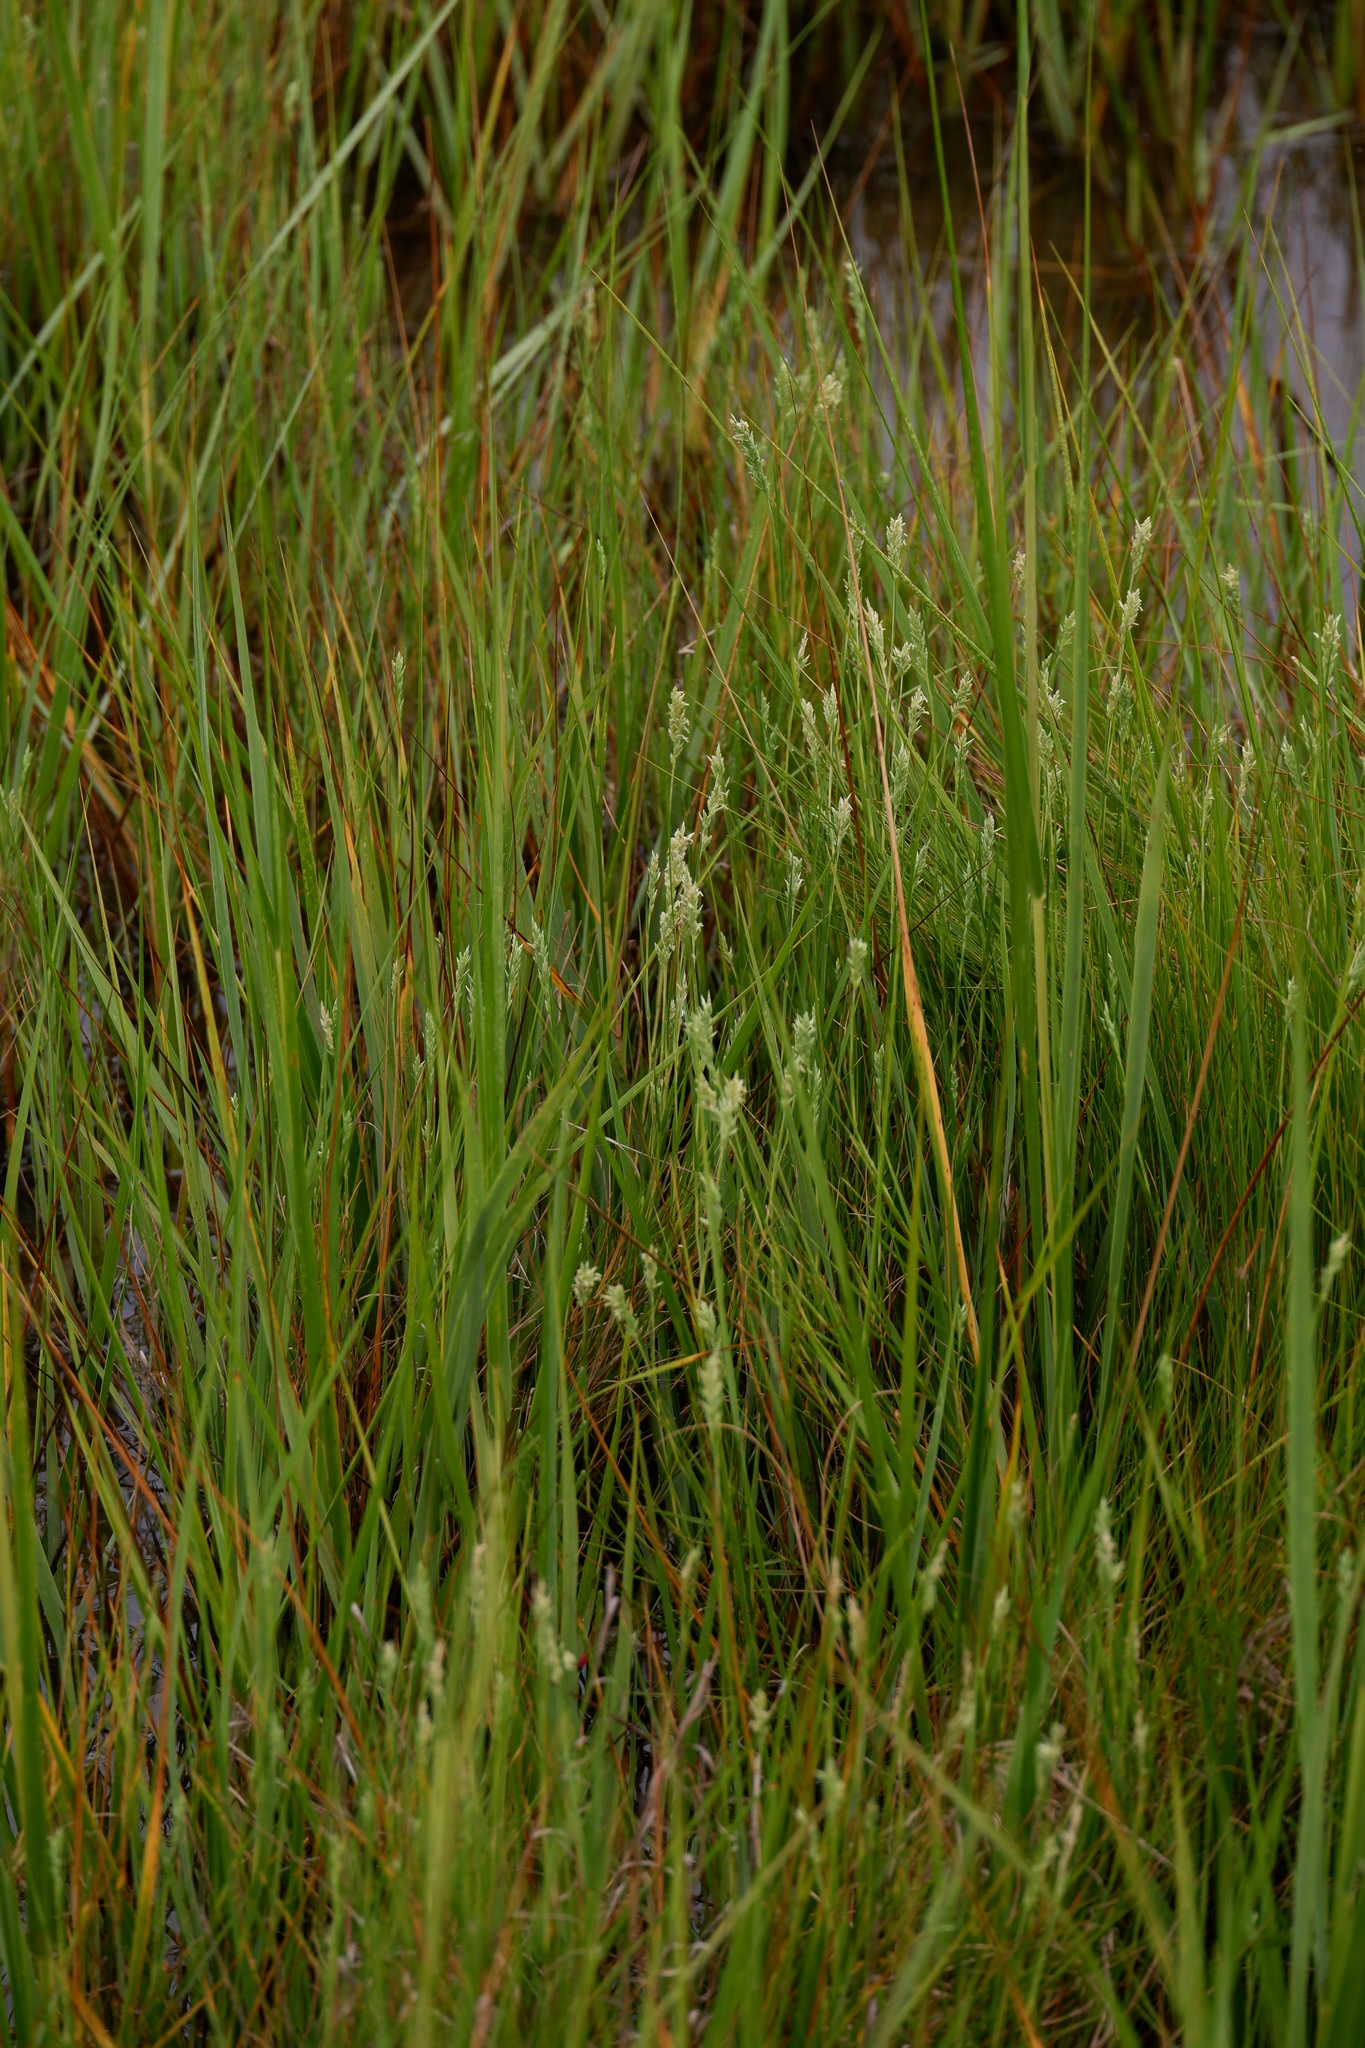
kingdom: Plantae
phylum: Tracheophyta
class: Liliopsida
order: Poales
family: Poaceae
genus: Distichlis
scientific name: Distichlis spicata
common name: Saltgrass
